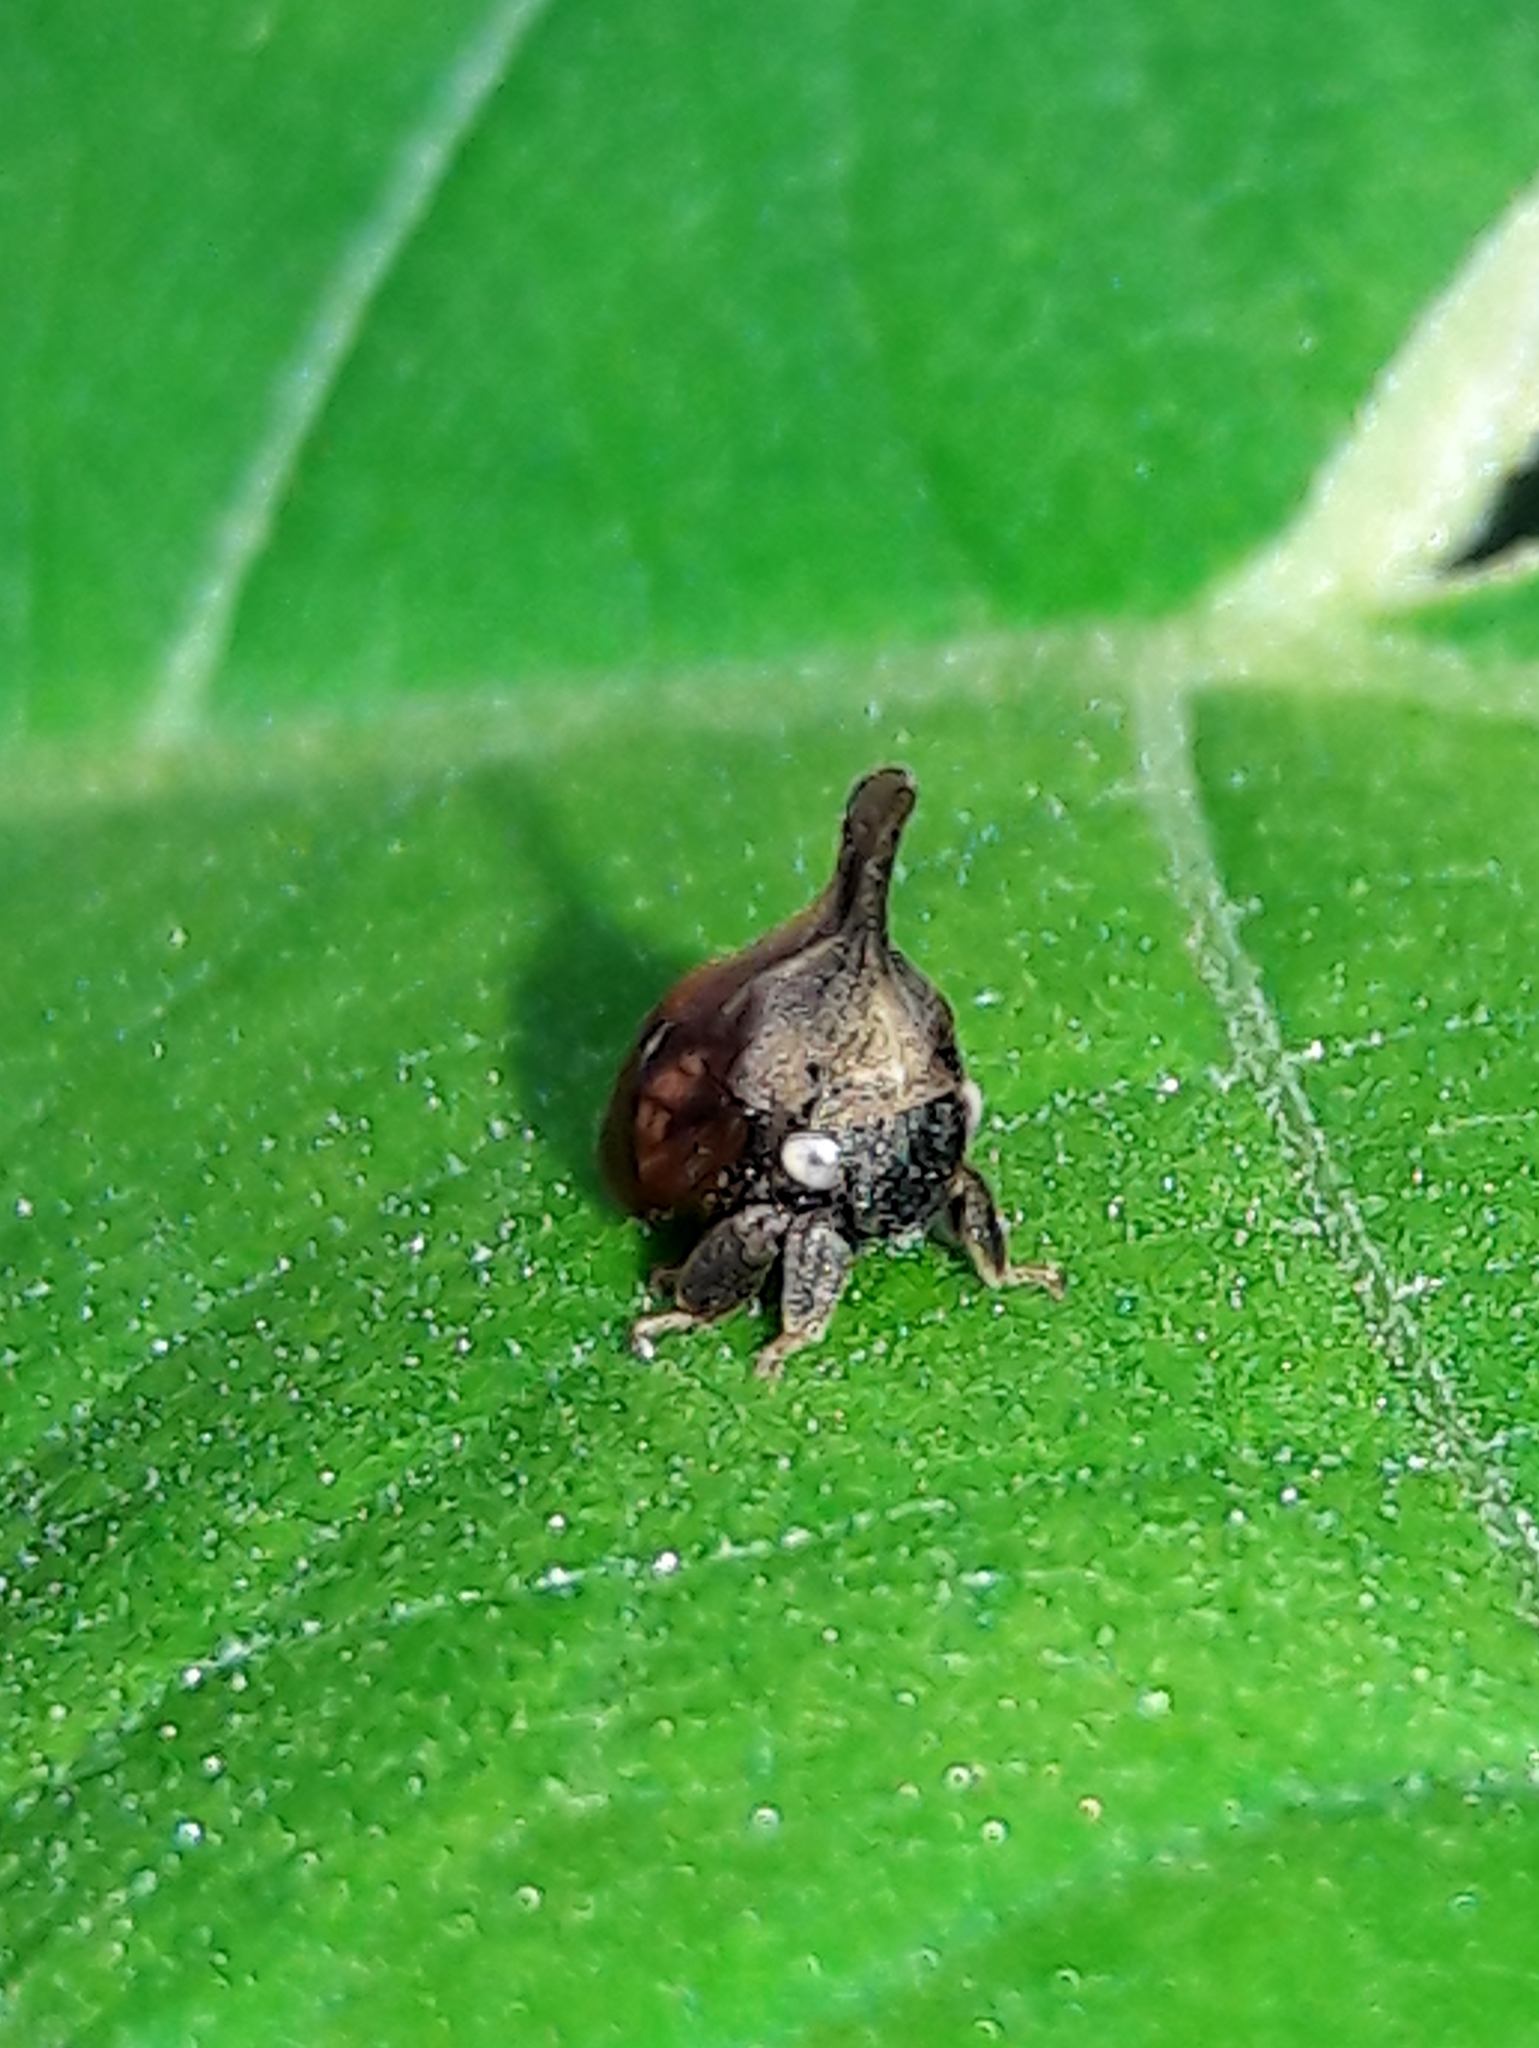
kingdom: Animalia
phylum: Arthropoda
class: Insecta
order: Hemiptera
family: Membracidae
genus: Enchenopa
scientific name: Enchenopa gracilis
